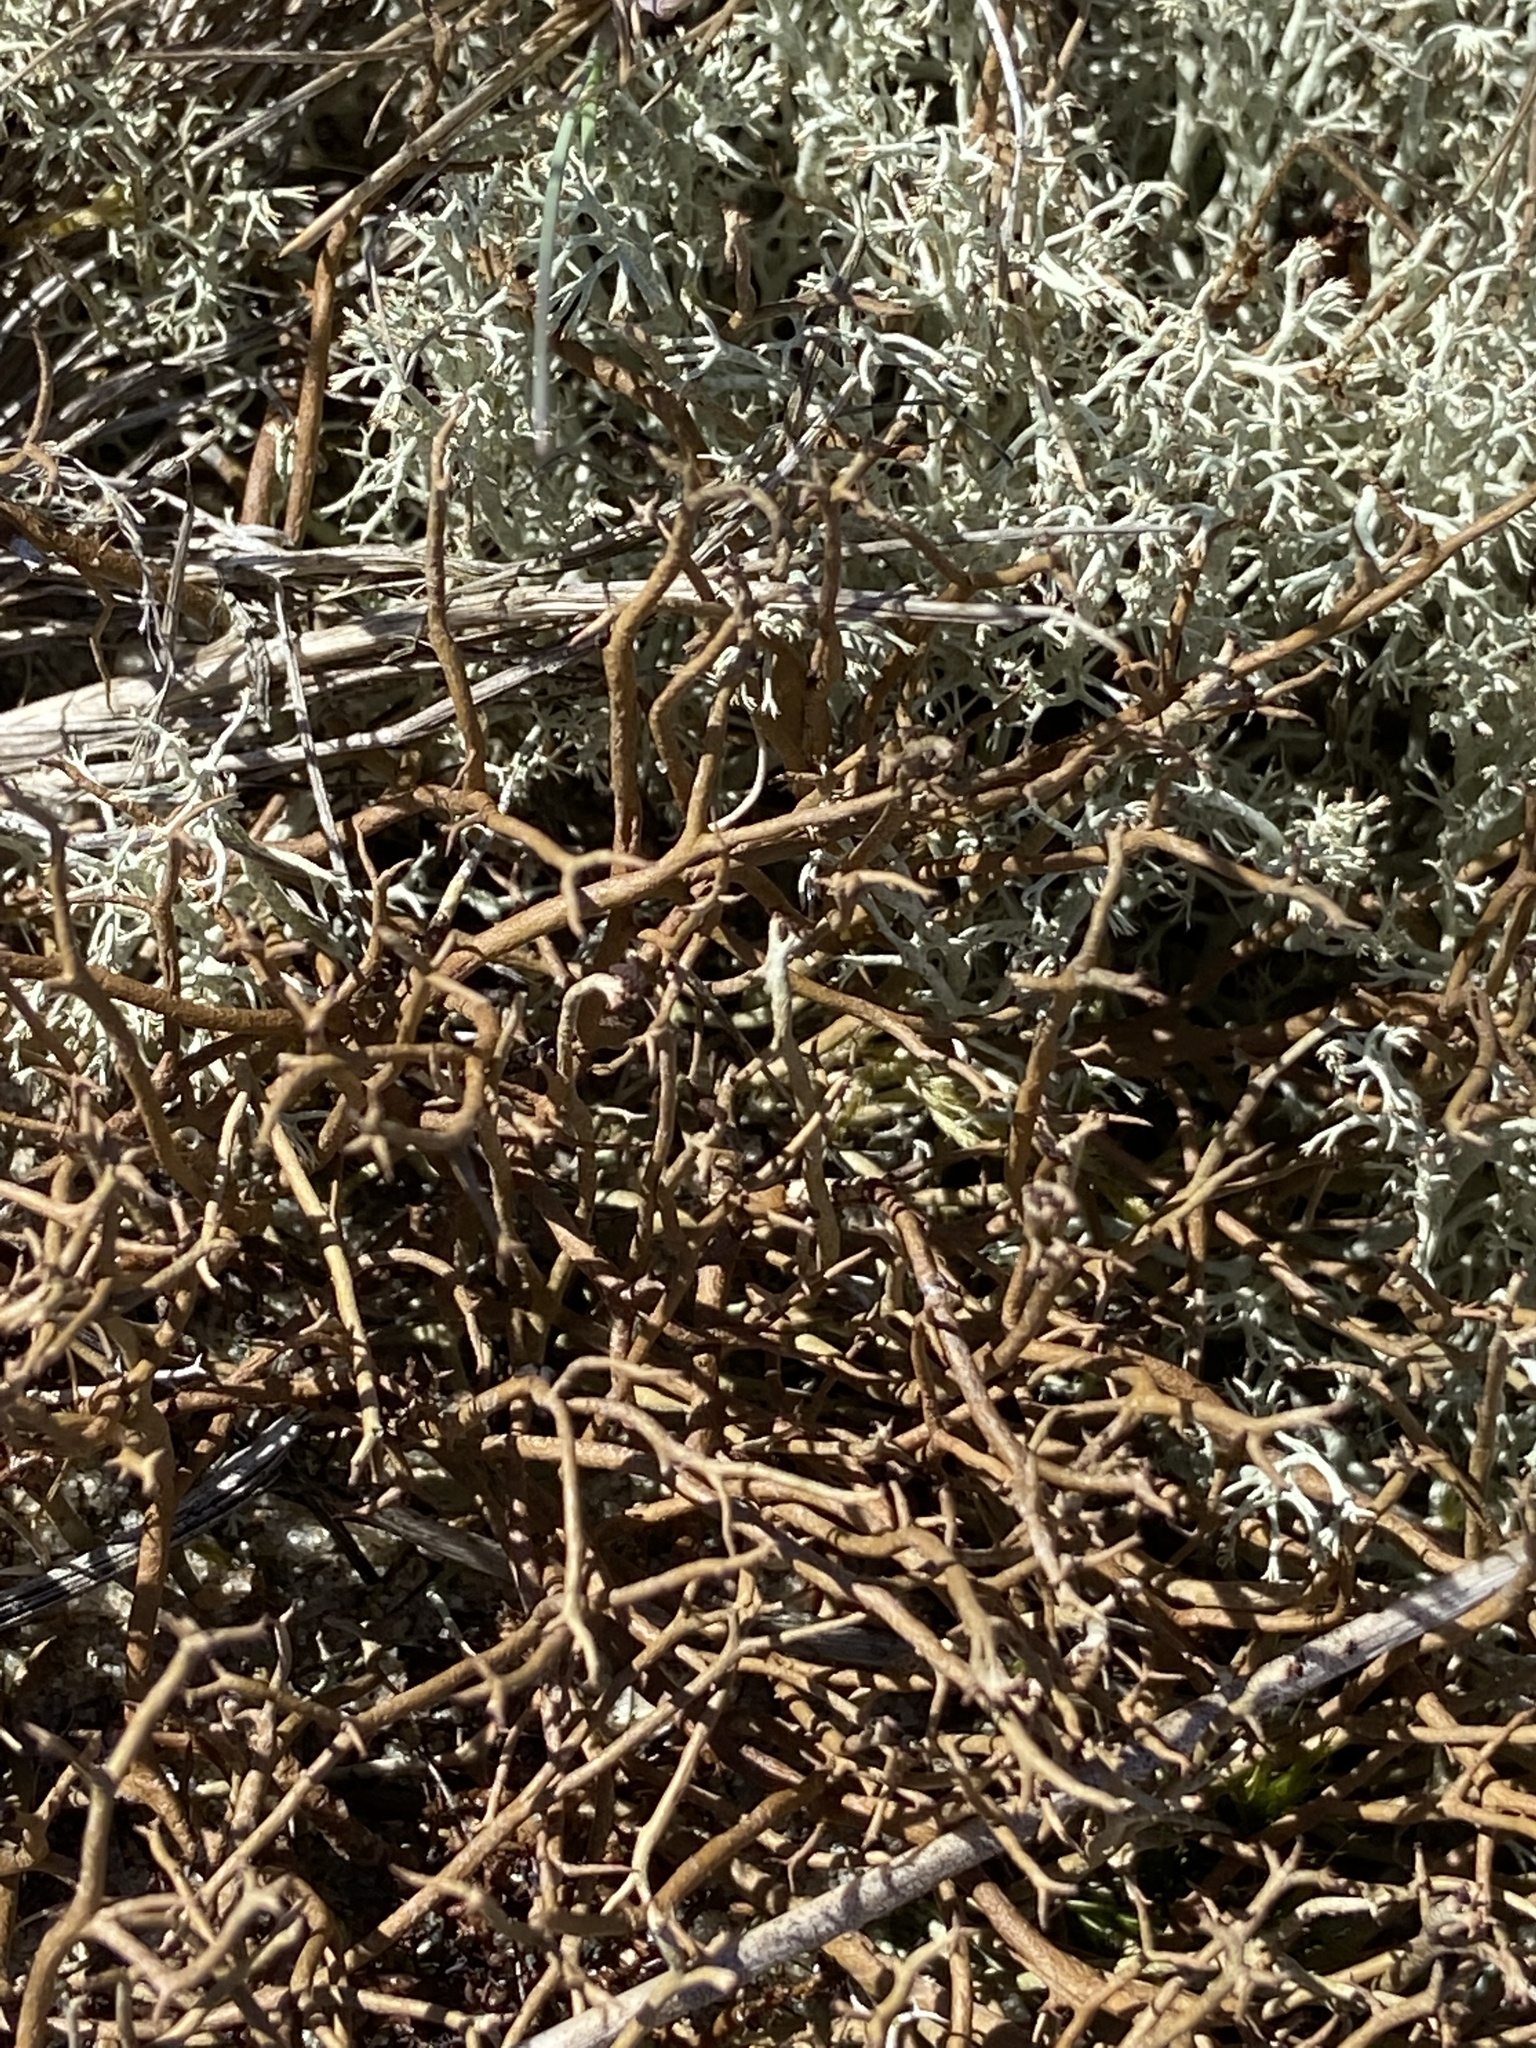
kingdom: Fungi
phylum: Ascomycota
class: Lecanoromycetes
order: Lecanorales
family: Cladoniaceae
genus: Cladonia
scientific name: Cladonia furcata
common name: Many-forked cladonia
